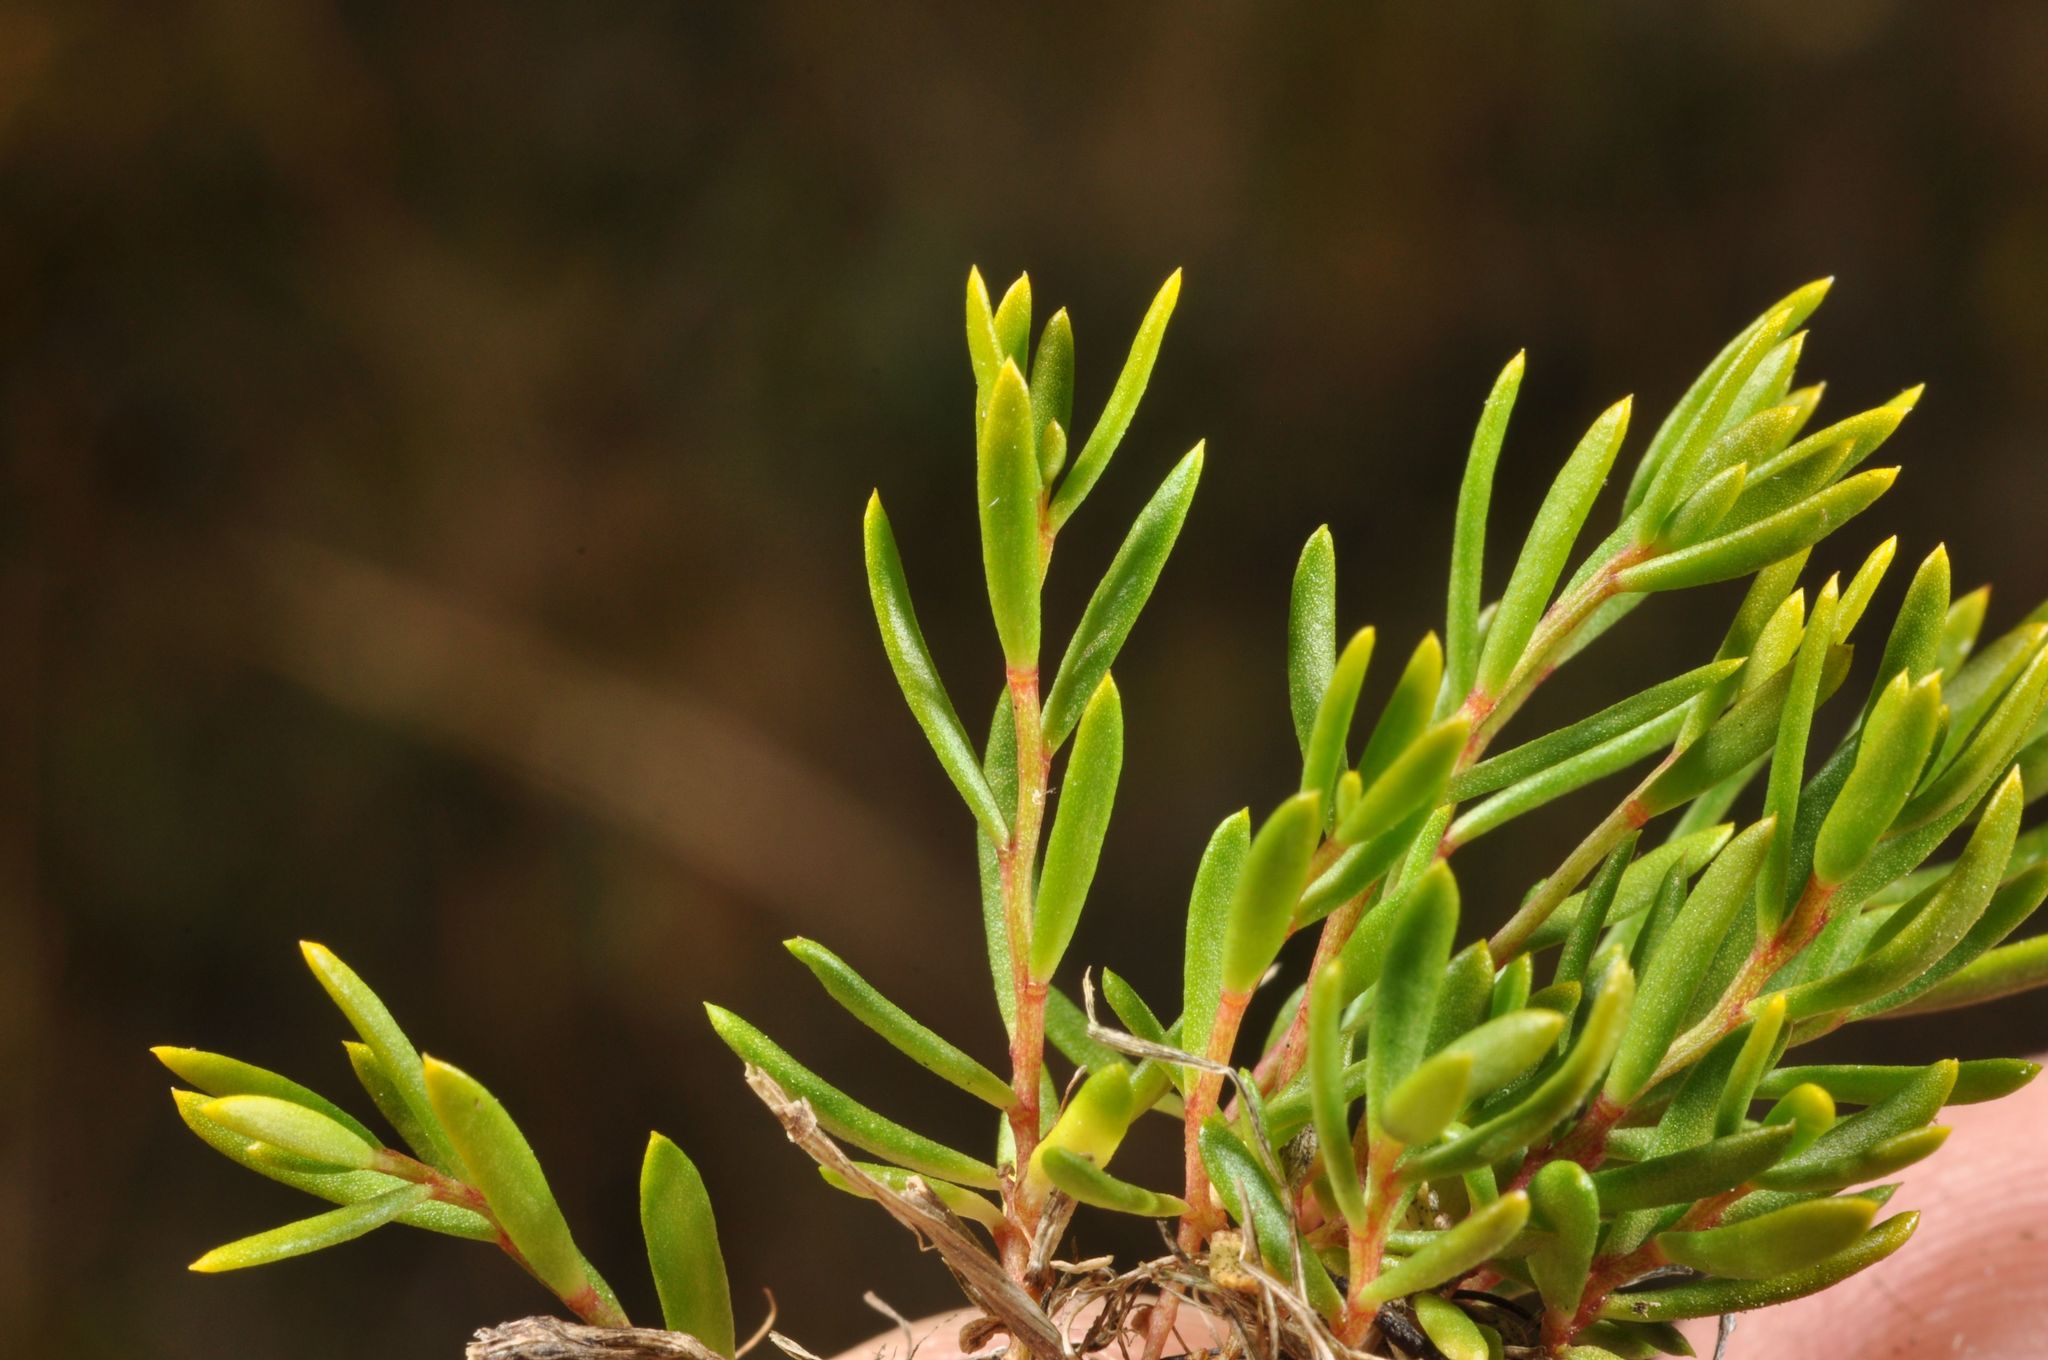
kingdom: Plantae
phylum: Tracheophyta
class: Magnoliopsida
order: Celastrales
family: Celastraceae
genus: Stackhousia
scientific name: Stackhousia minima
